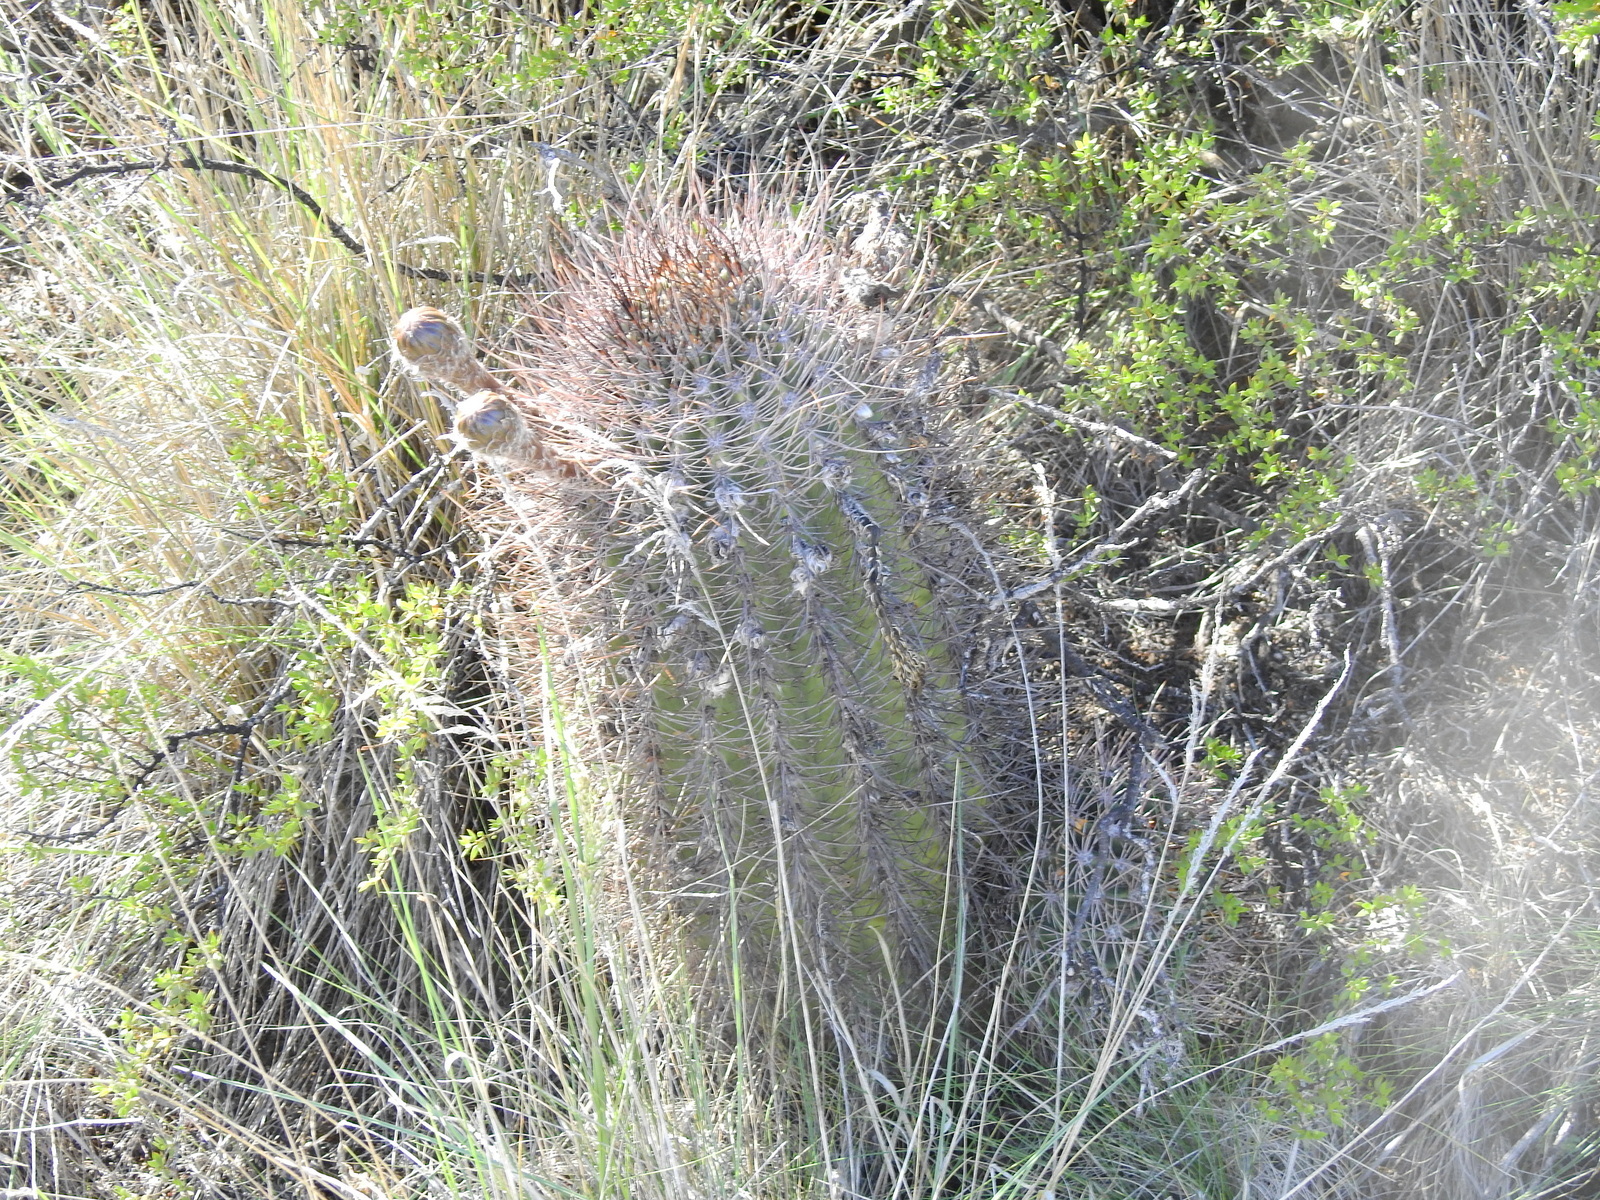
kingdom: Plantae
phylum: Tracheophyta
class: Magnoliopsida
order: Caryophyllales
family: Cactaceae
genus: Acanthocalycium
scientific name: Acanthocalycium leucanthum
